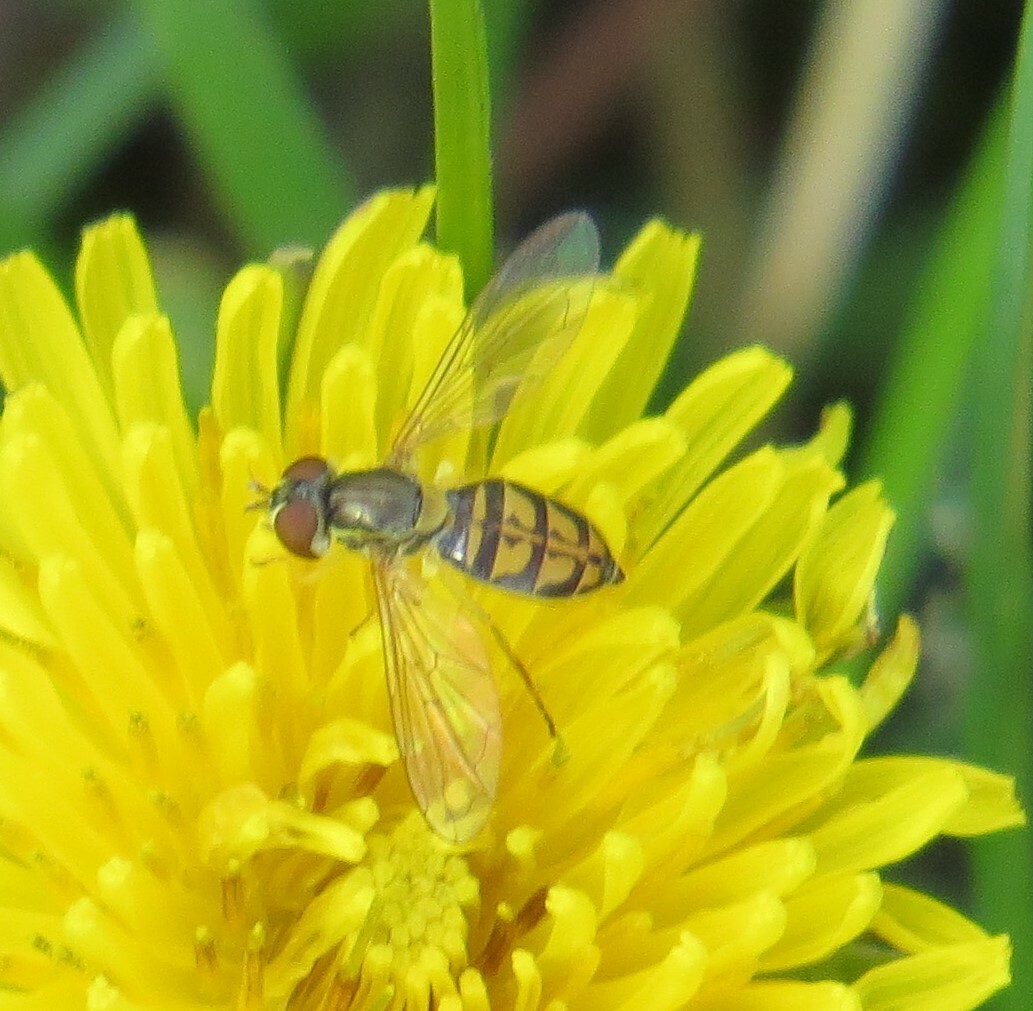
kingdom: Animalia
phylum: Arthropoda
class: Insecta
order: Diptera
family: Syrphidae
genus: Toxomerus
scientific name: Toxomerus marginatus
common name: Syrphid fly
